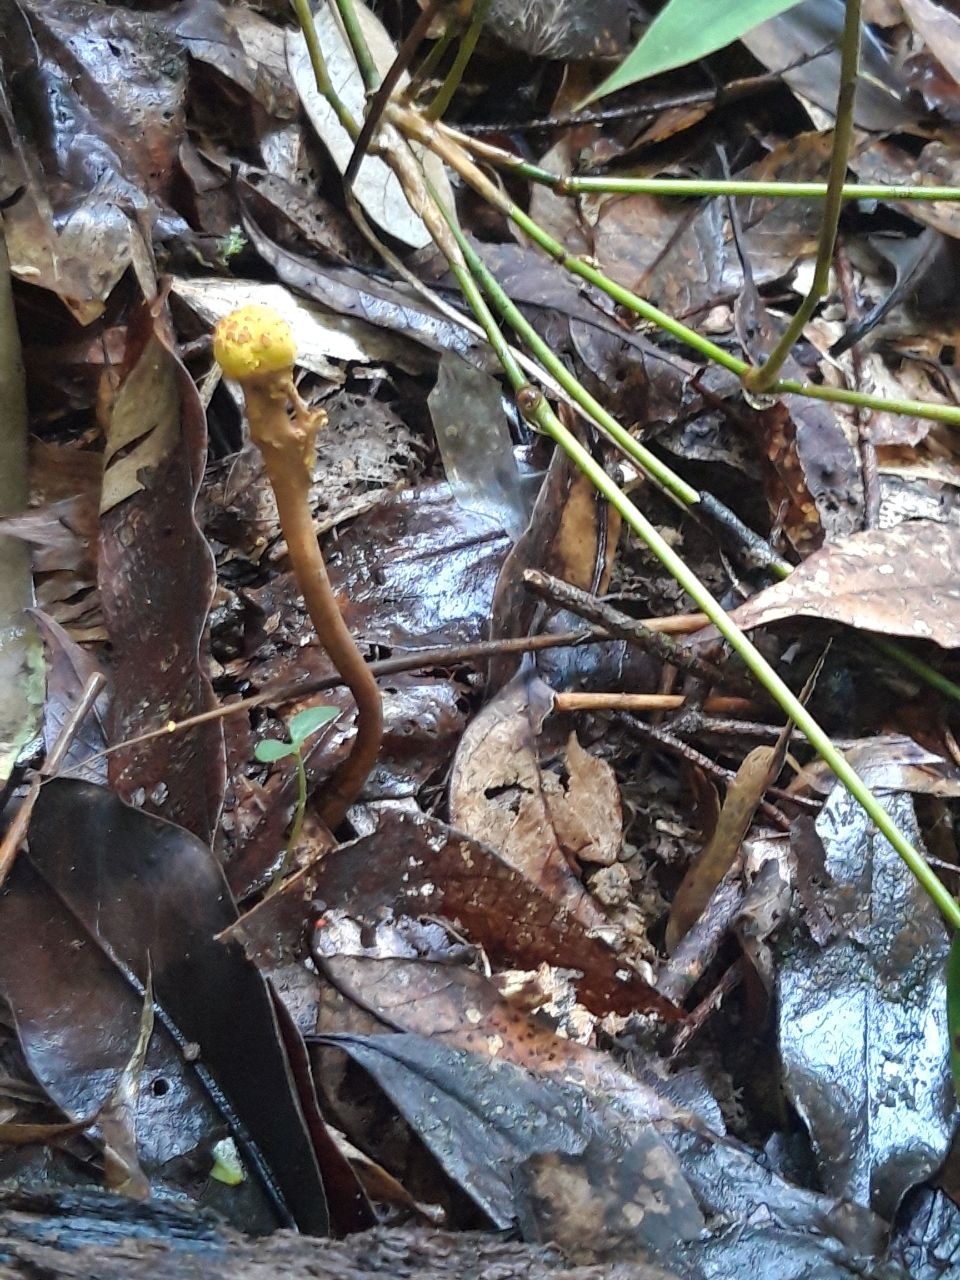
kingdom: Fungi
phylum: Ascomycota
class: Eurotiomycetes
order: Eurotiales
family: Aspergillaceae
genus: Dendrosphaera
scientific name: Dendrosphaera eberhardtii
